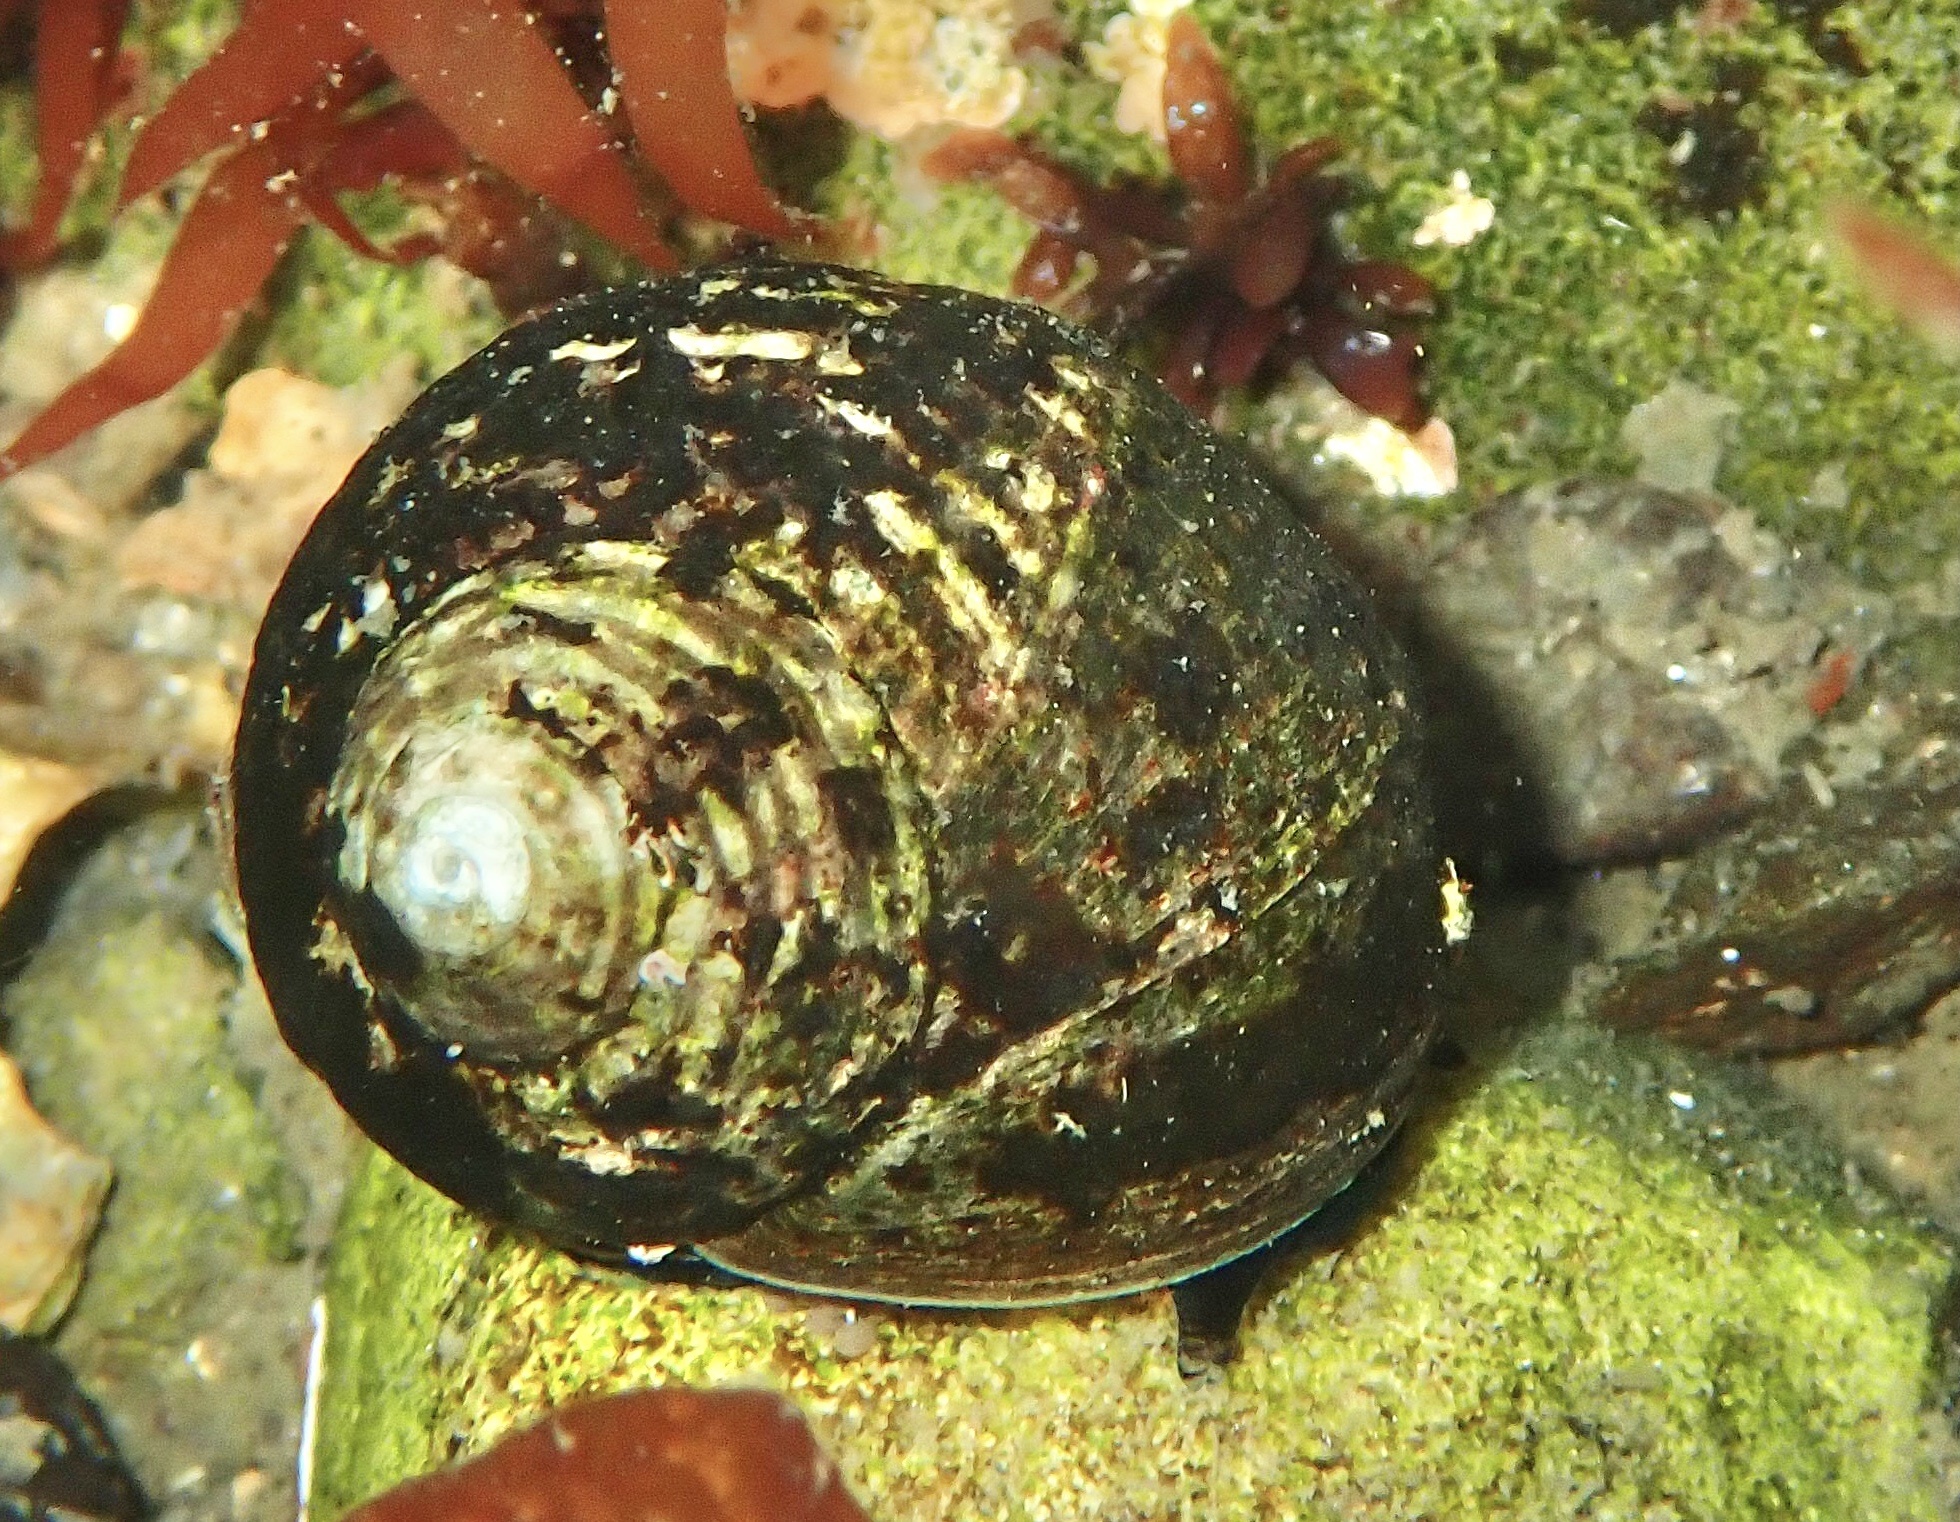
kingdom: Animalia
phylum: Mollusca
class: Gastropoda
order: Littorinimorpha
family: Littorinidae
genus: Littorina
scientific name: Littorina littorea
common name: Common periwinkle
